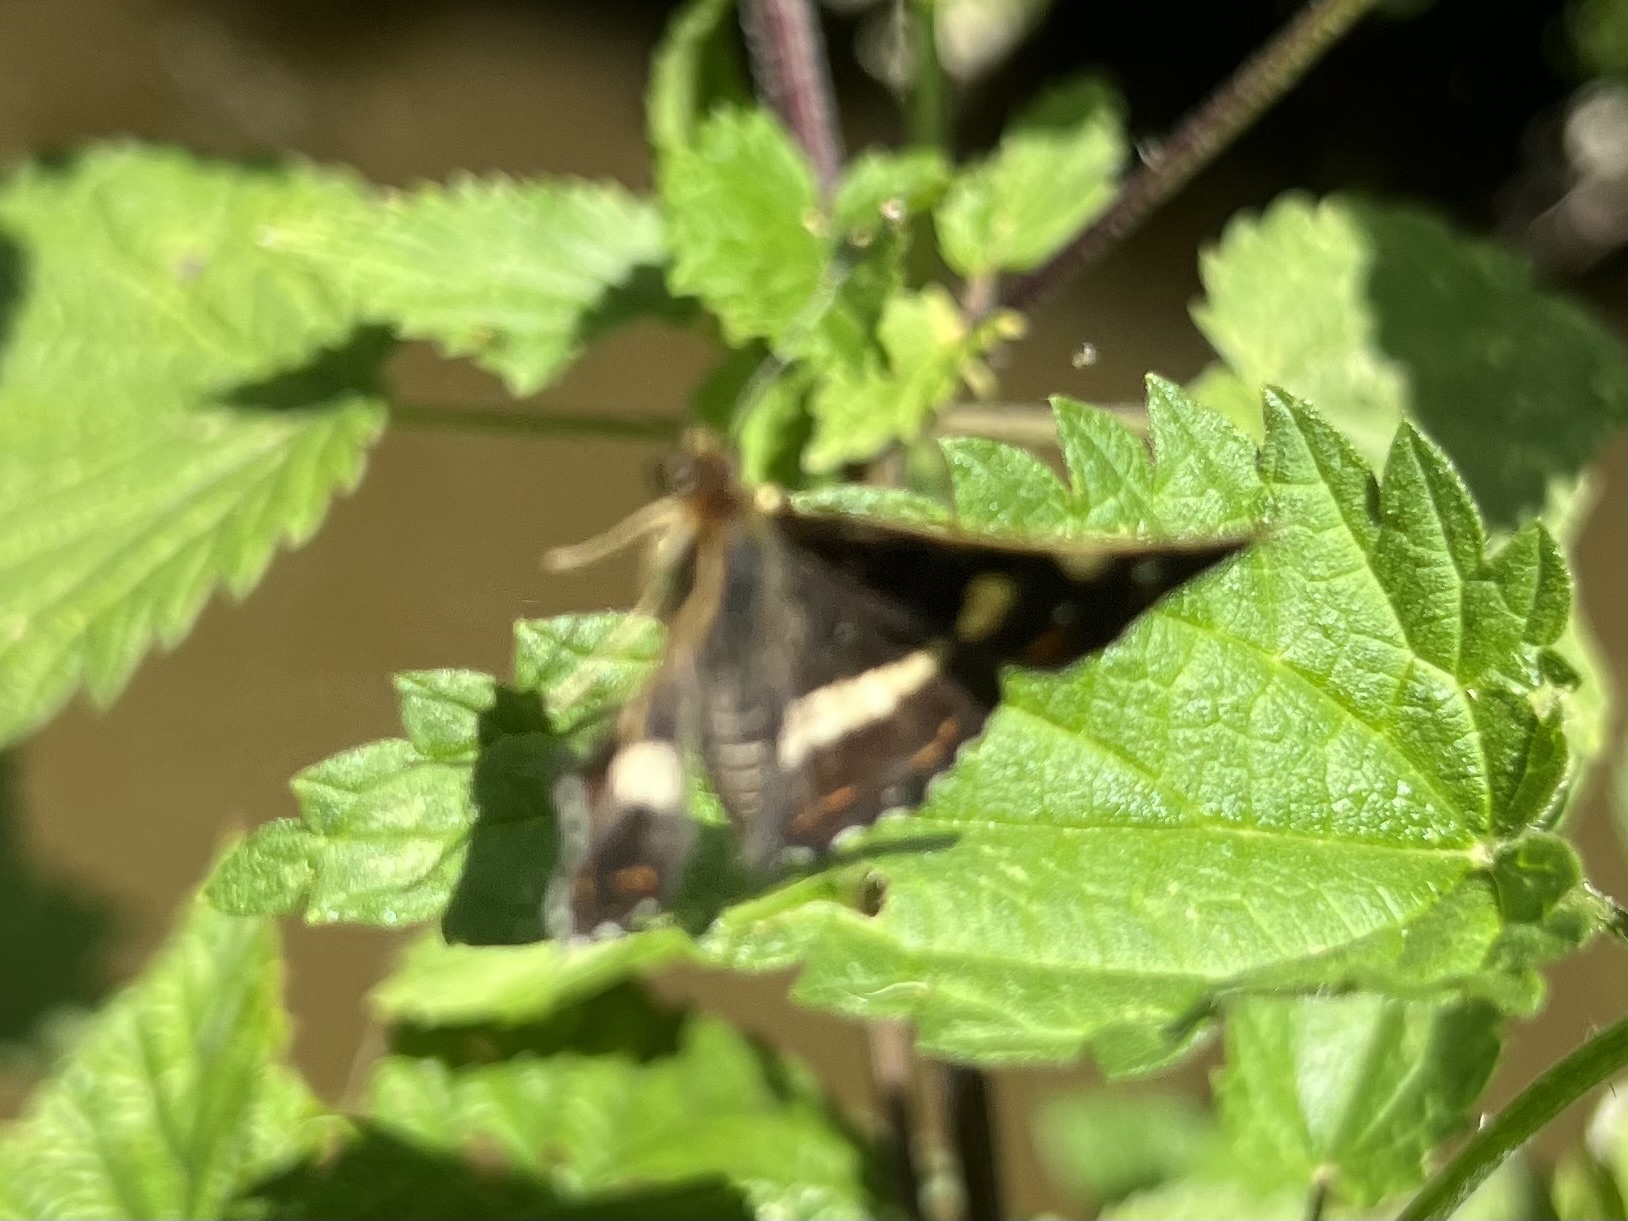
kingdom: Animalia
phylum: Arthropoda
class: Insecta
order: Lepidoptera
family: Nymphalidae
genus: Araschnia
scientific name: Araschnia levana
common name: Map butterfly
